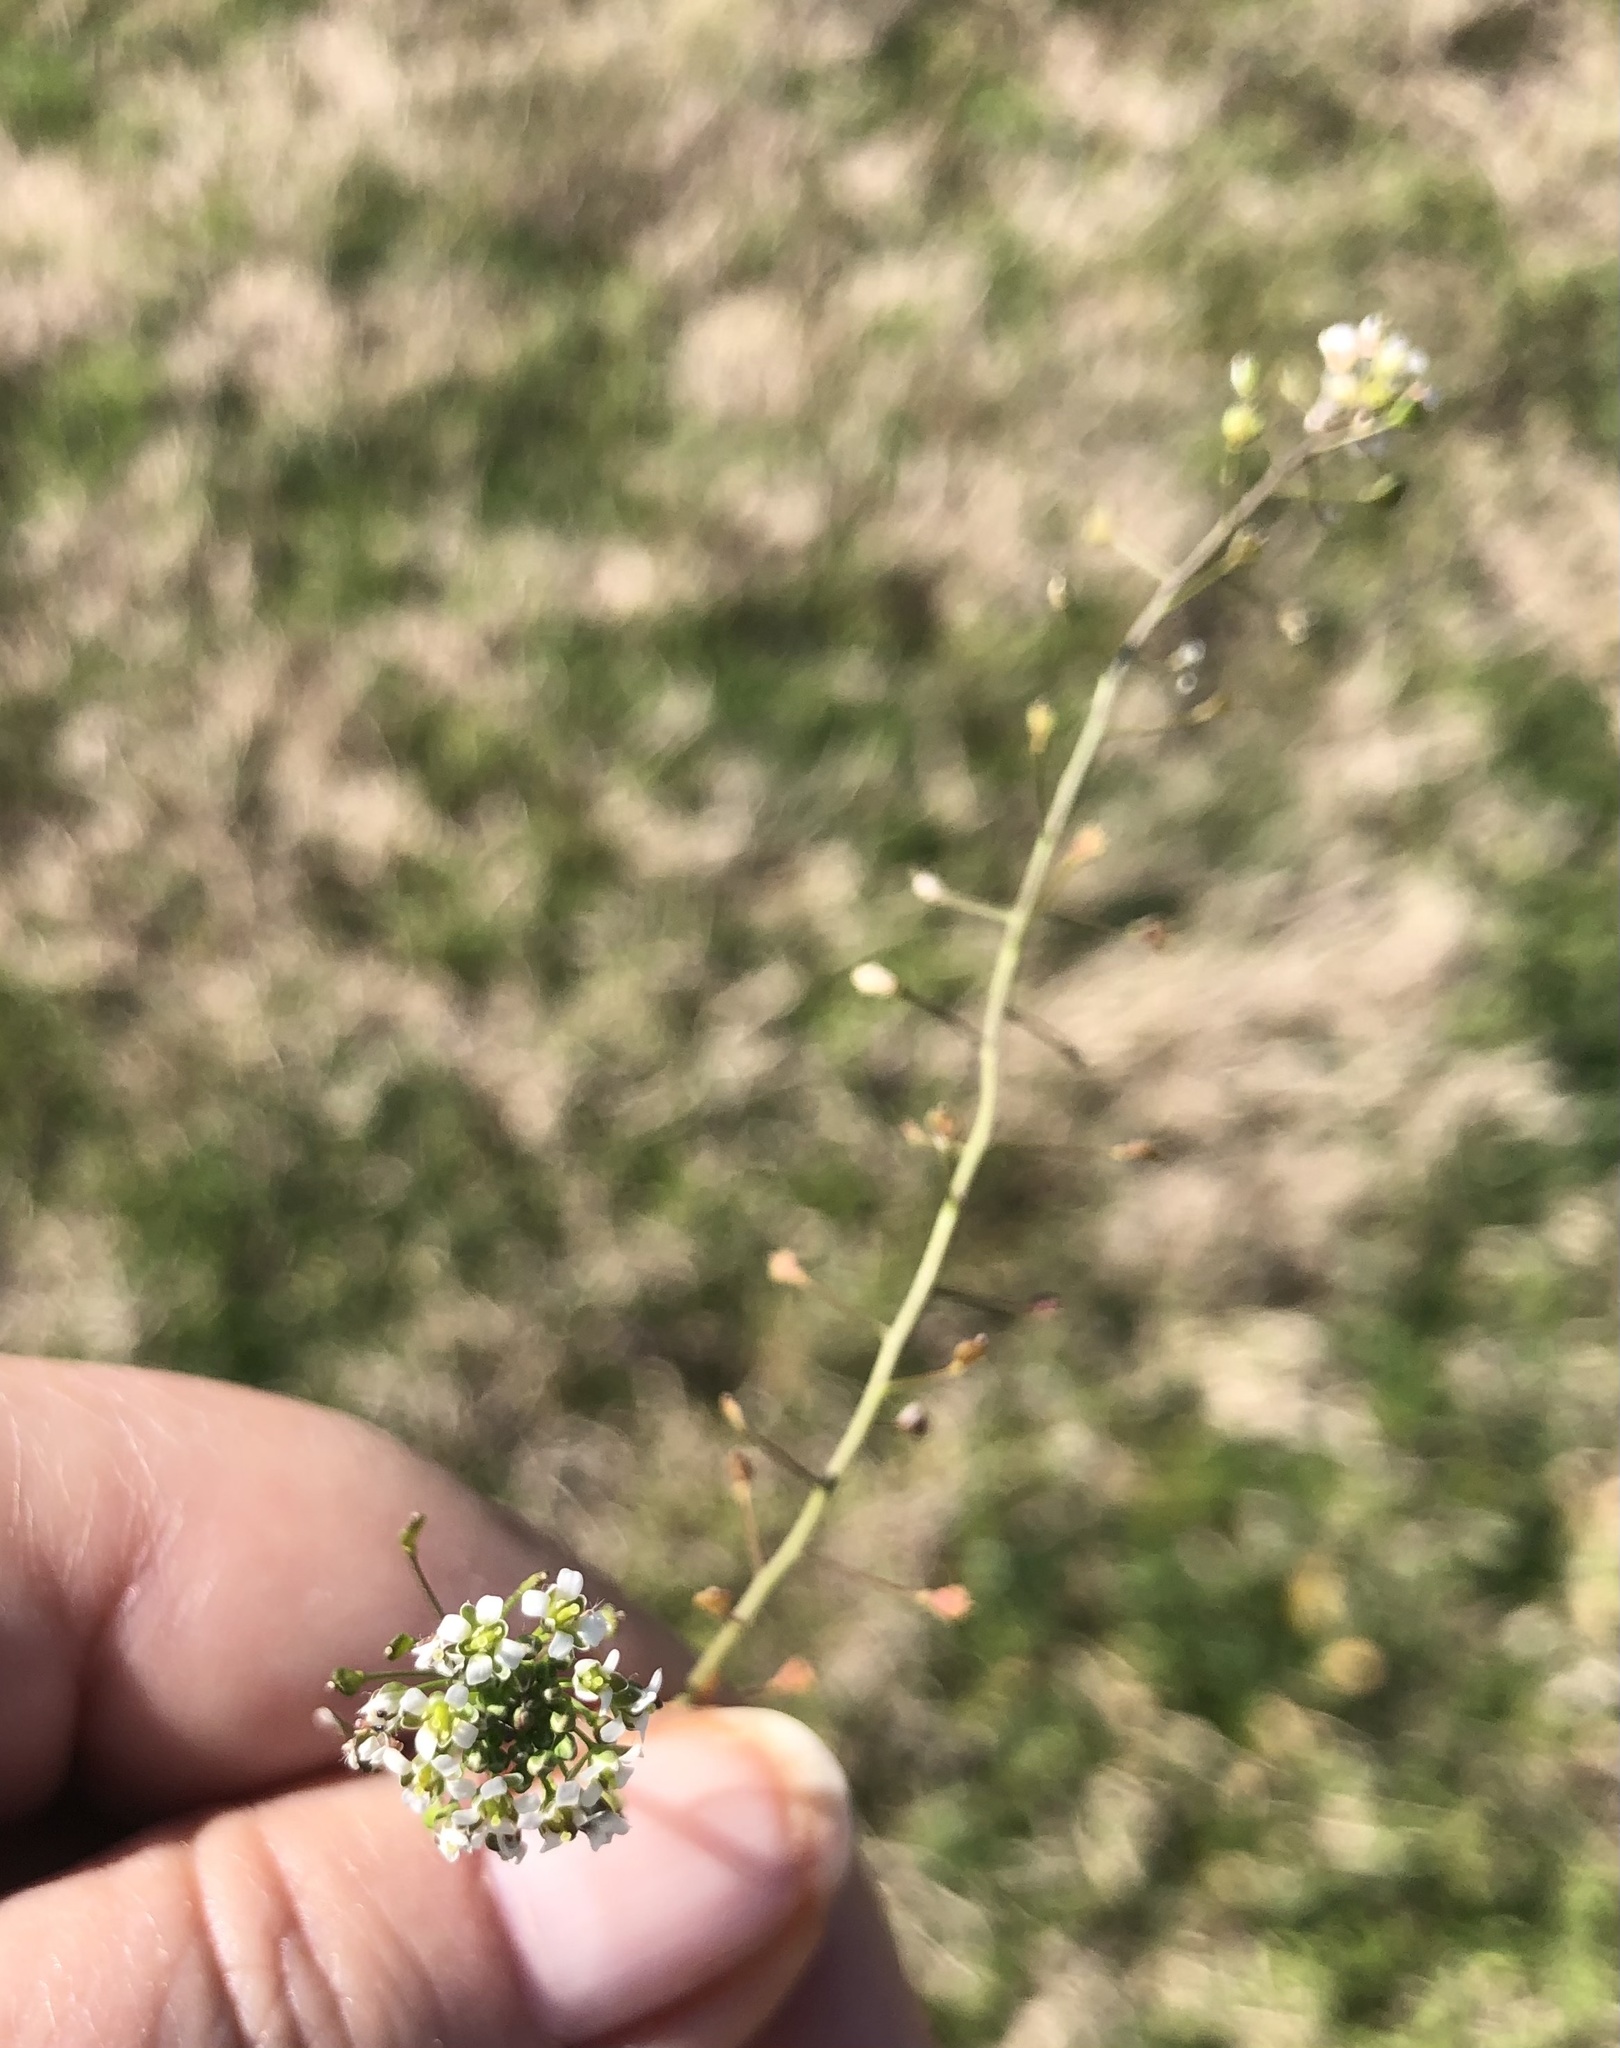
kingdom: Plantae
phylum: Tracheophyta
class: Magnoliopsida
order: Brassicales
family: Brassicaceae
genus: Capsella
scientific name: Capsella bursa-pastoris
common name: Shepherd's purse
